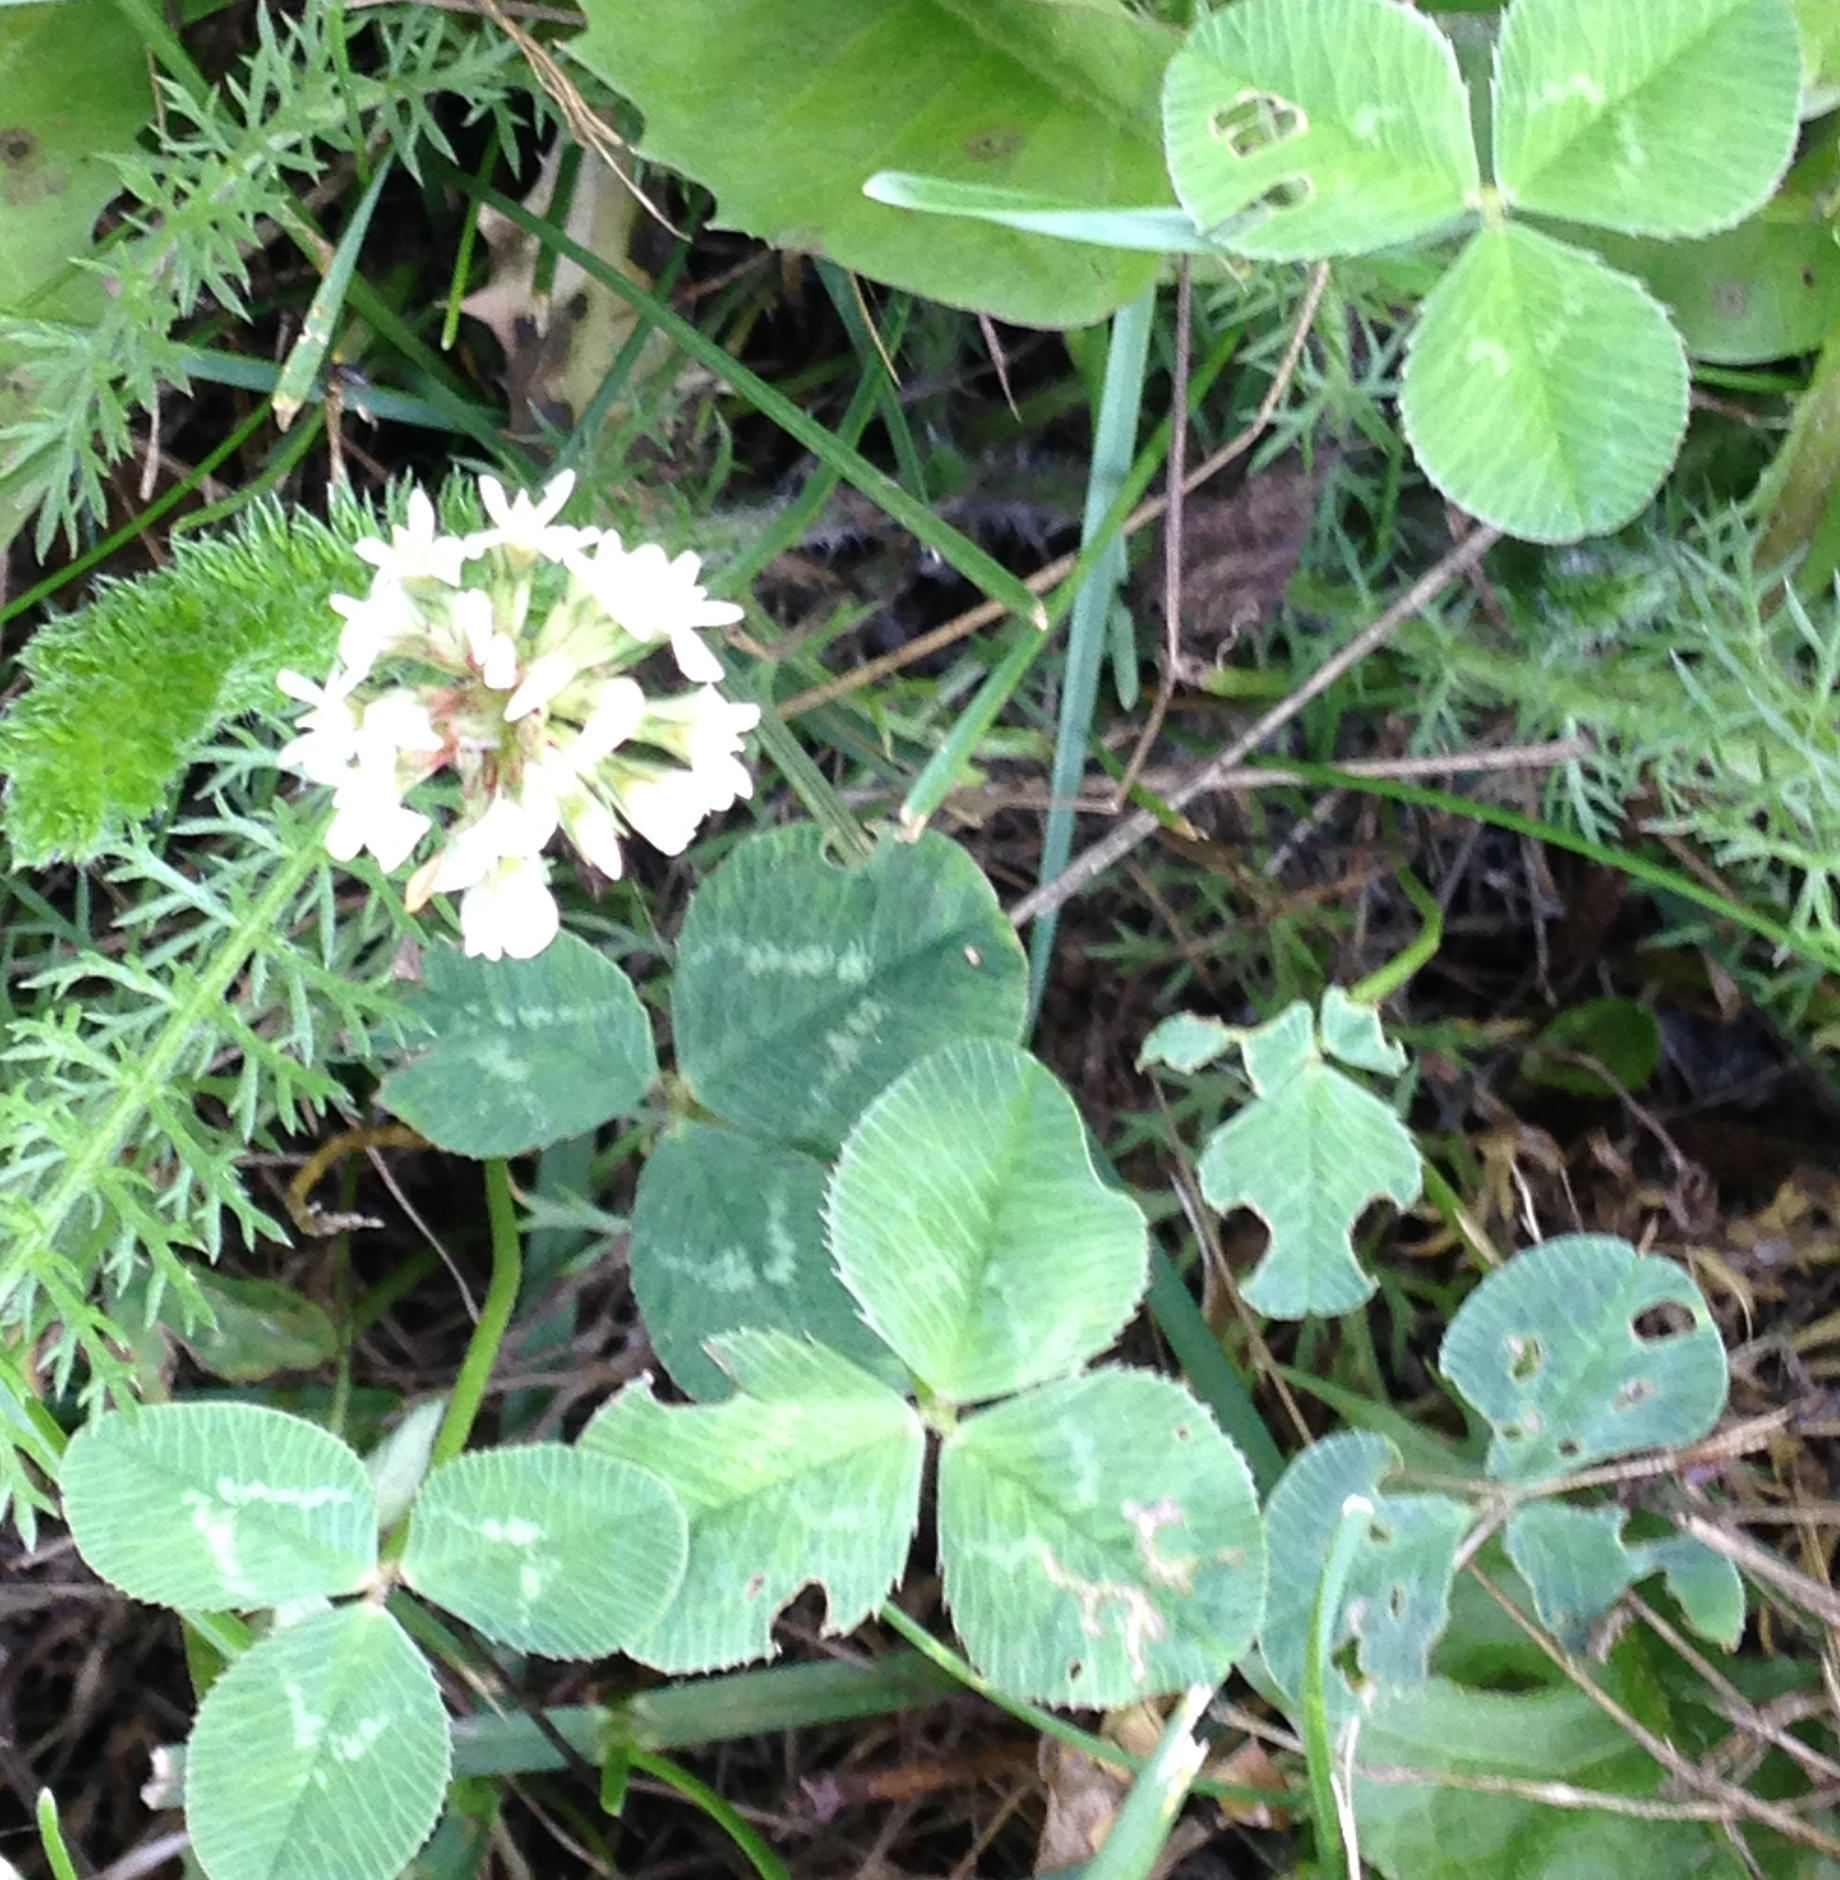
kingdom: Plantae
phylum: Tracheophyta
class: Magnoliopsida
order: Fabales
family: Fabaceae
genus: Trifolium
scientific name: Trifolium repens
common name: White clover
